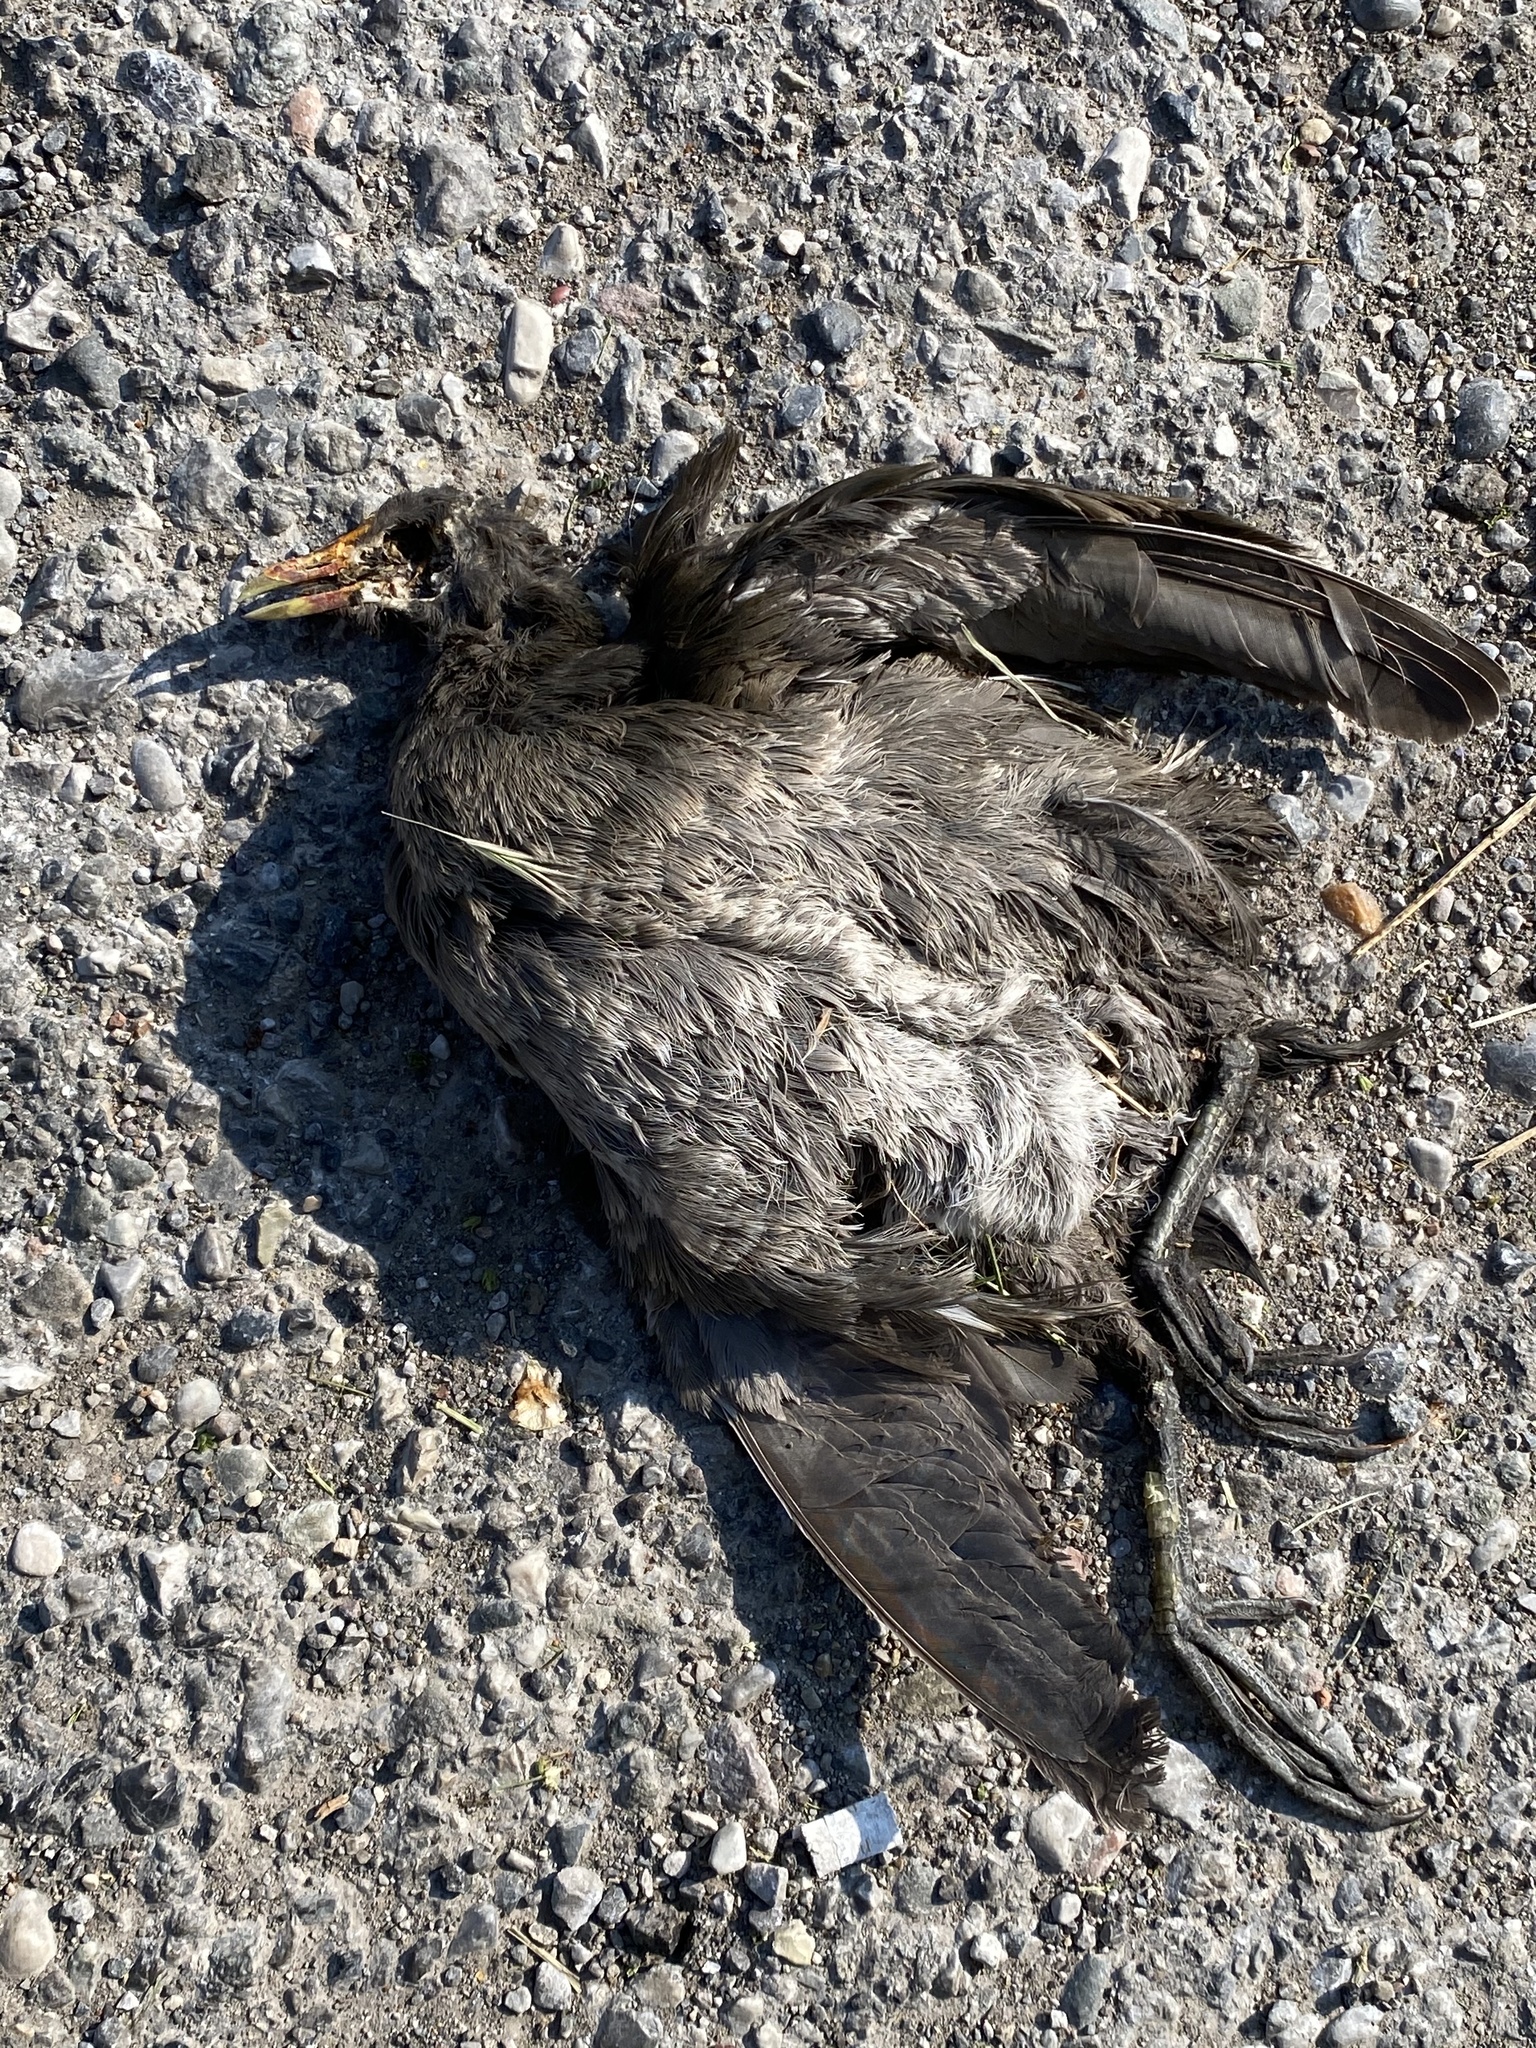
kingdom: Animalia
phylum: Chordata
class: Aves
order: Gruiformes
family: Rallidae
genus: Gallinula
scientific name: Gallinula chloropus
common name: Common moorhen
